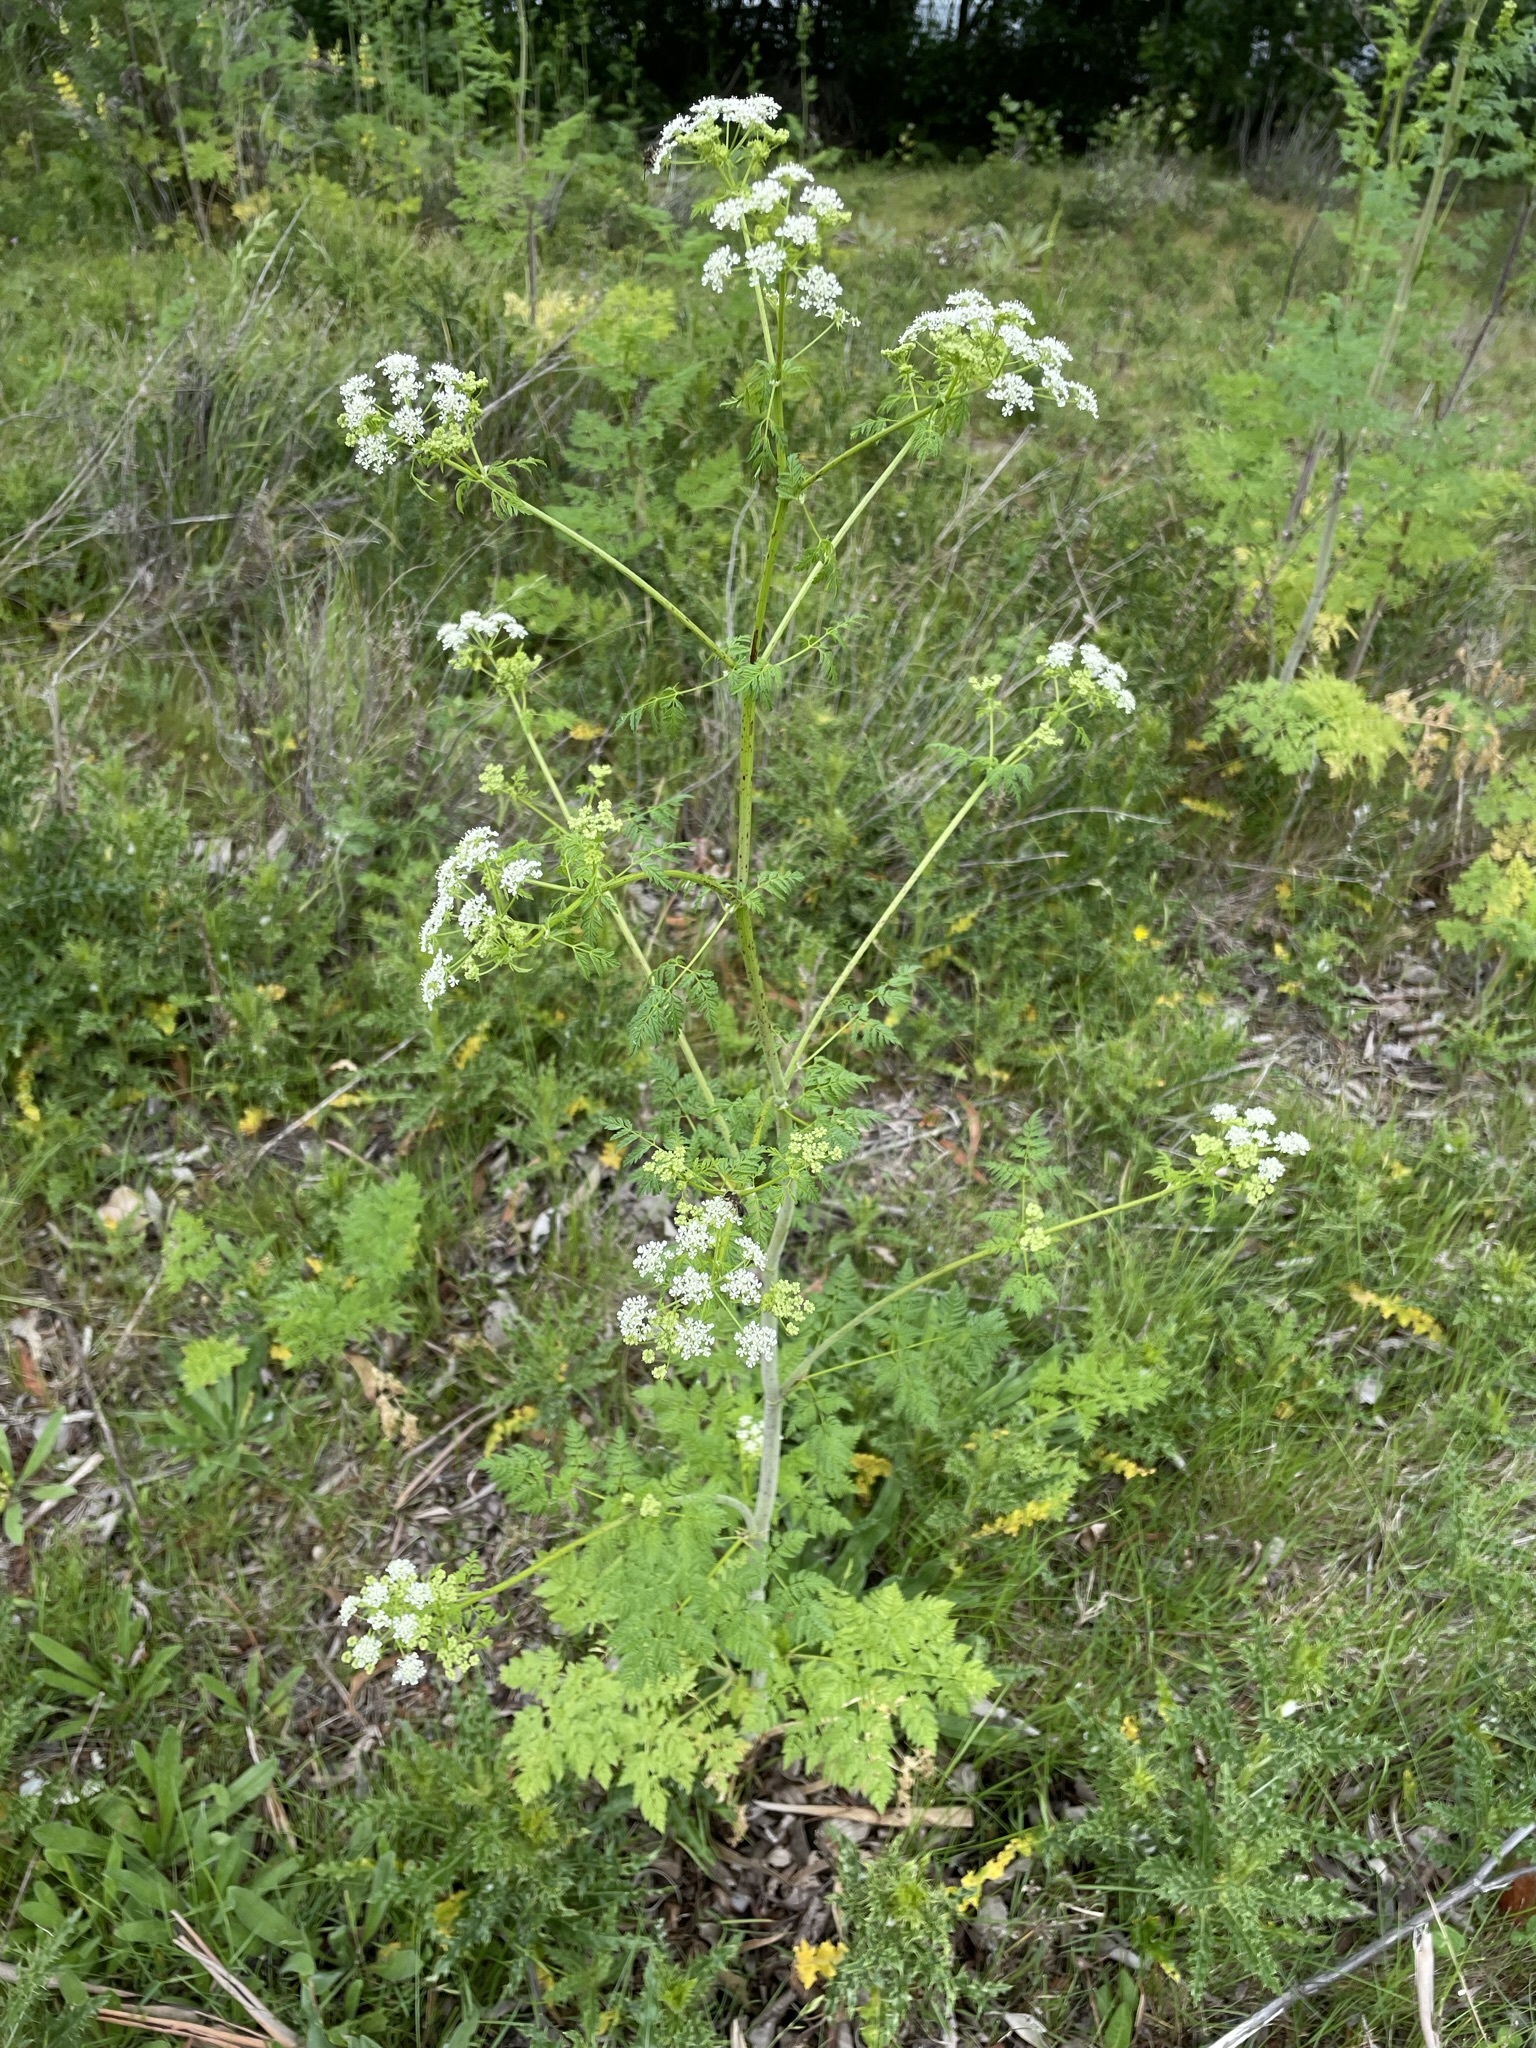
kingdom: Plantae
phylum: Tracheophyta
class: Magnoliopsida
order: Apiales
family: Apiaceae
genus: Conium
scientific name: Conium maculatum
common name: Hemlock
